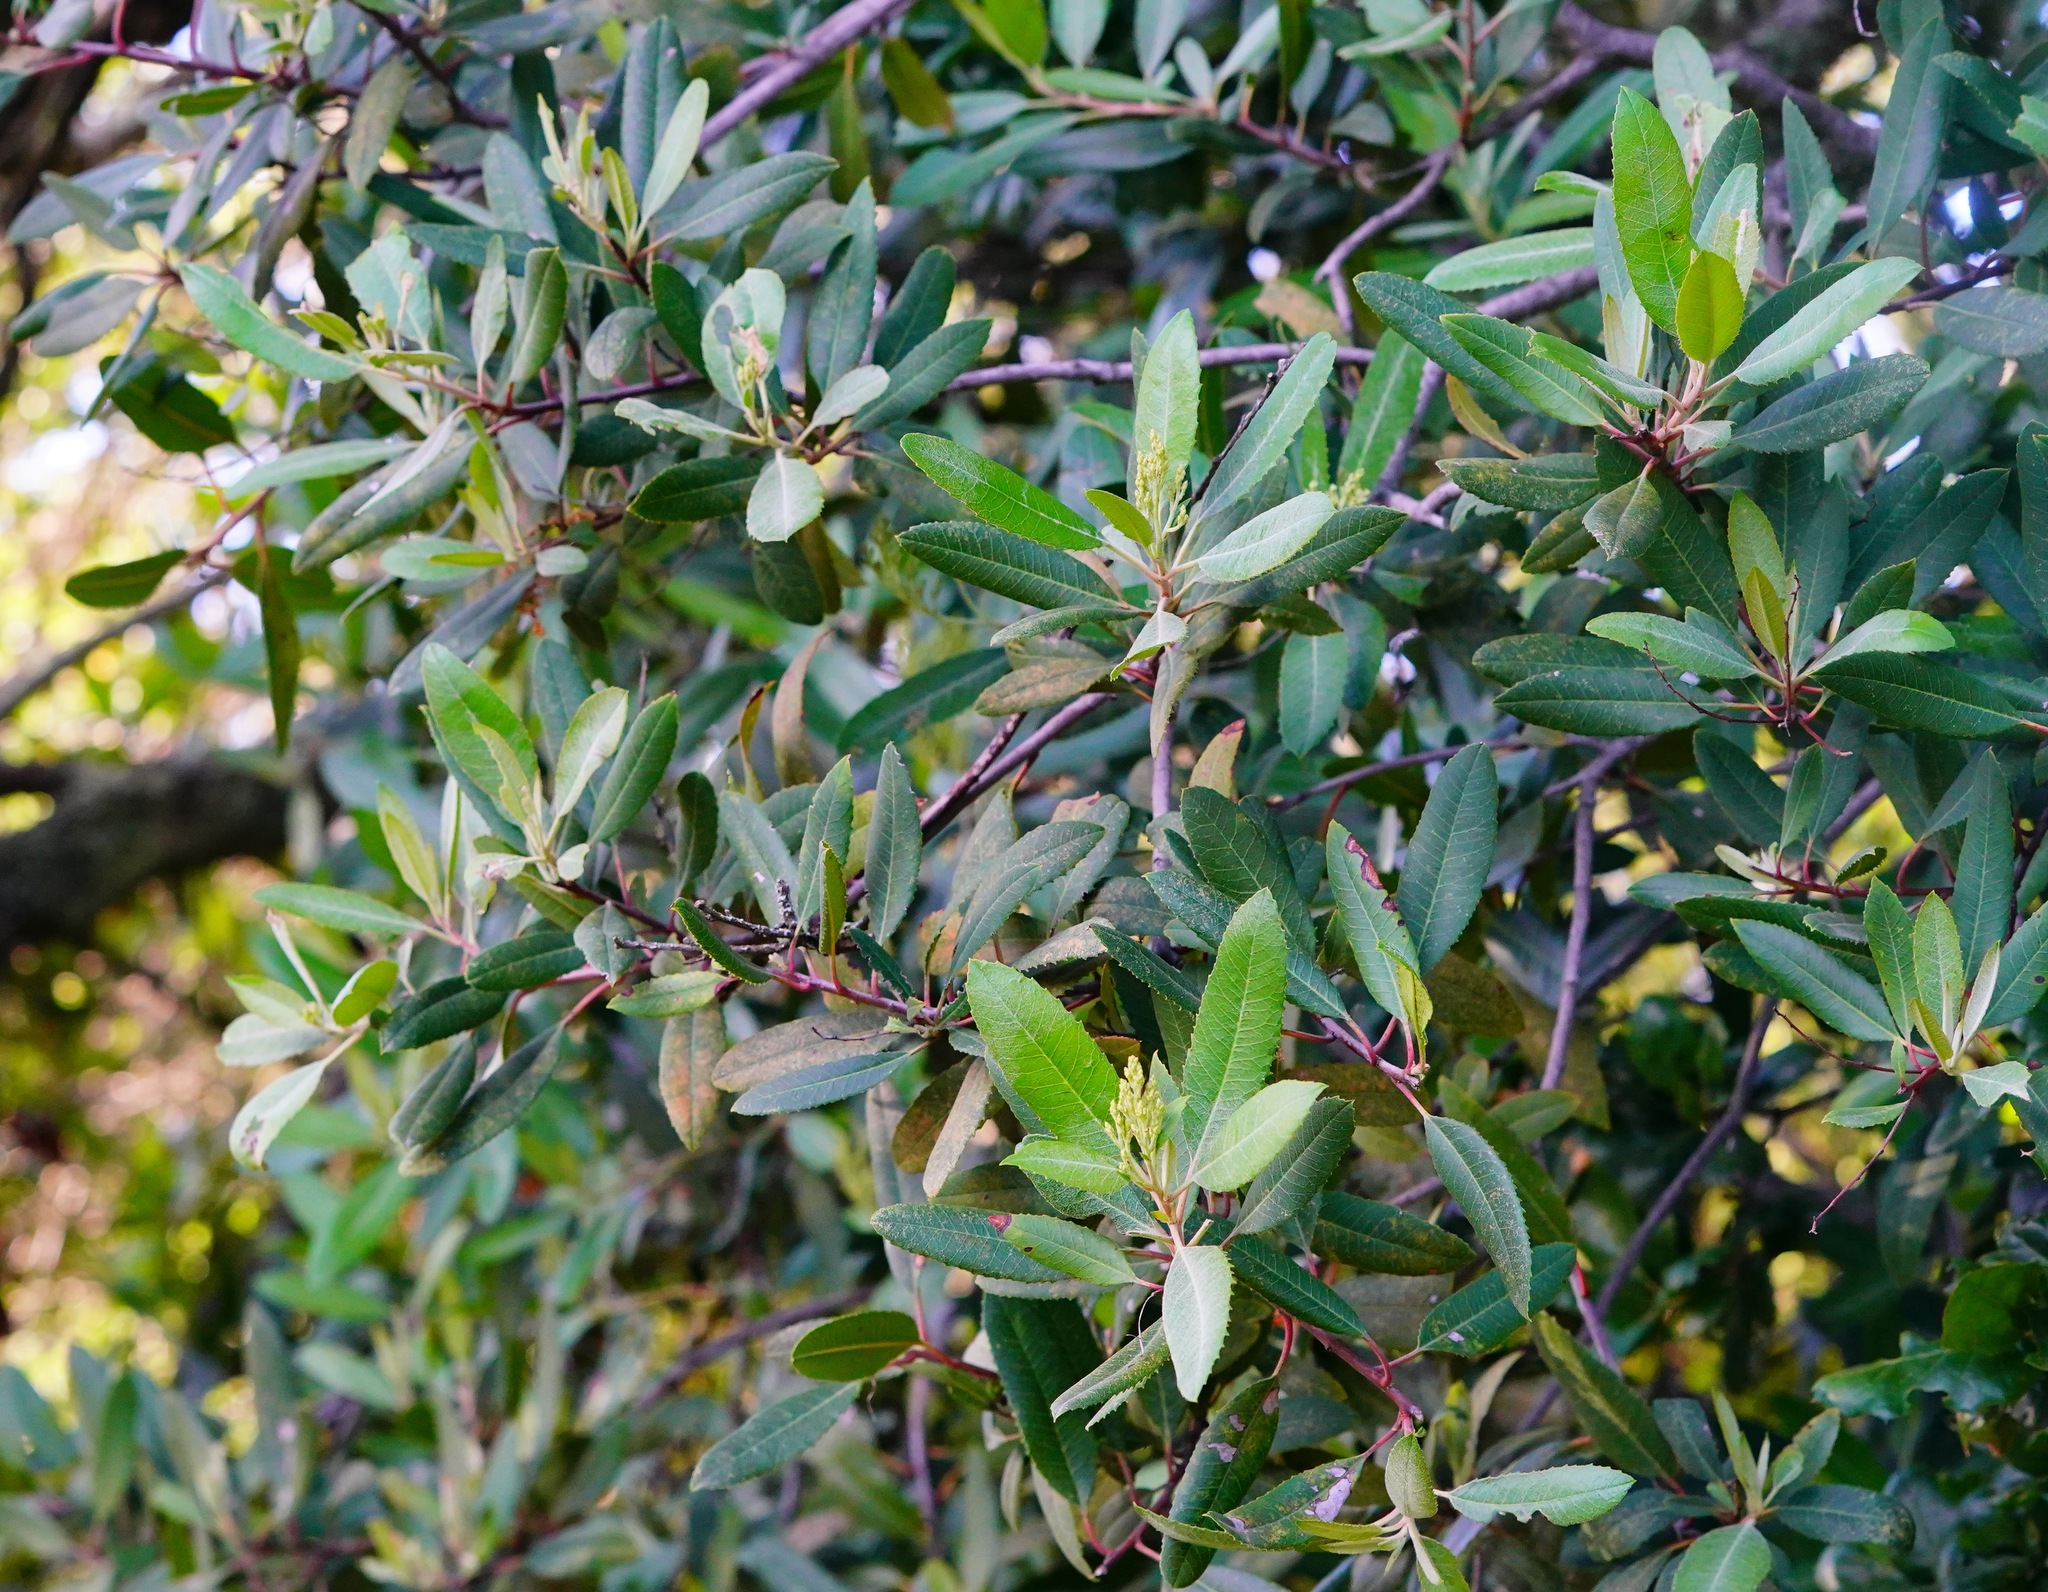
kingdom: Plantae
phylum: Tracheophyta
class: Magnoliopsida
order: Rosales
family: Rosaceae
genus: Heteromeles
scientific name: Heteromeles arbutifolia
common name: California-holly
